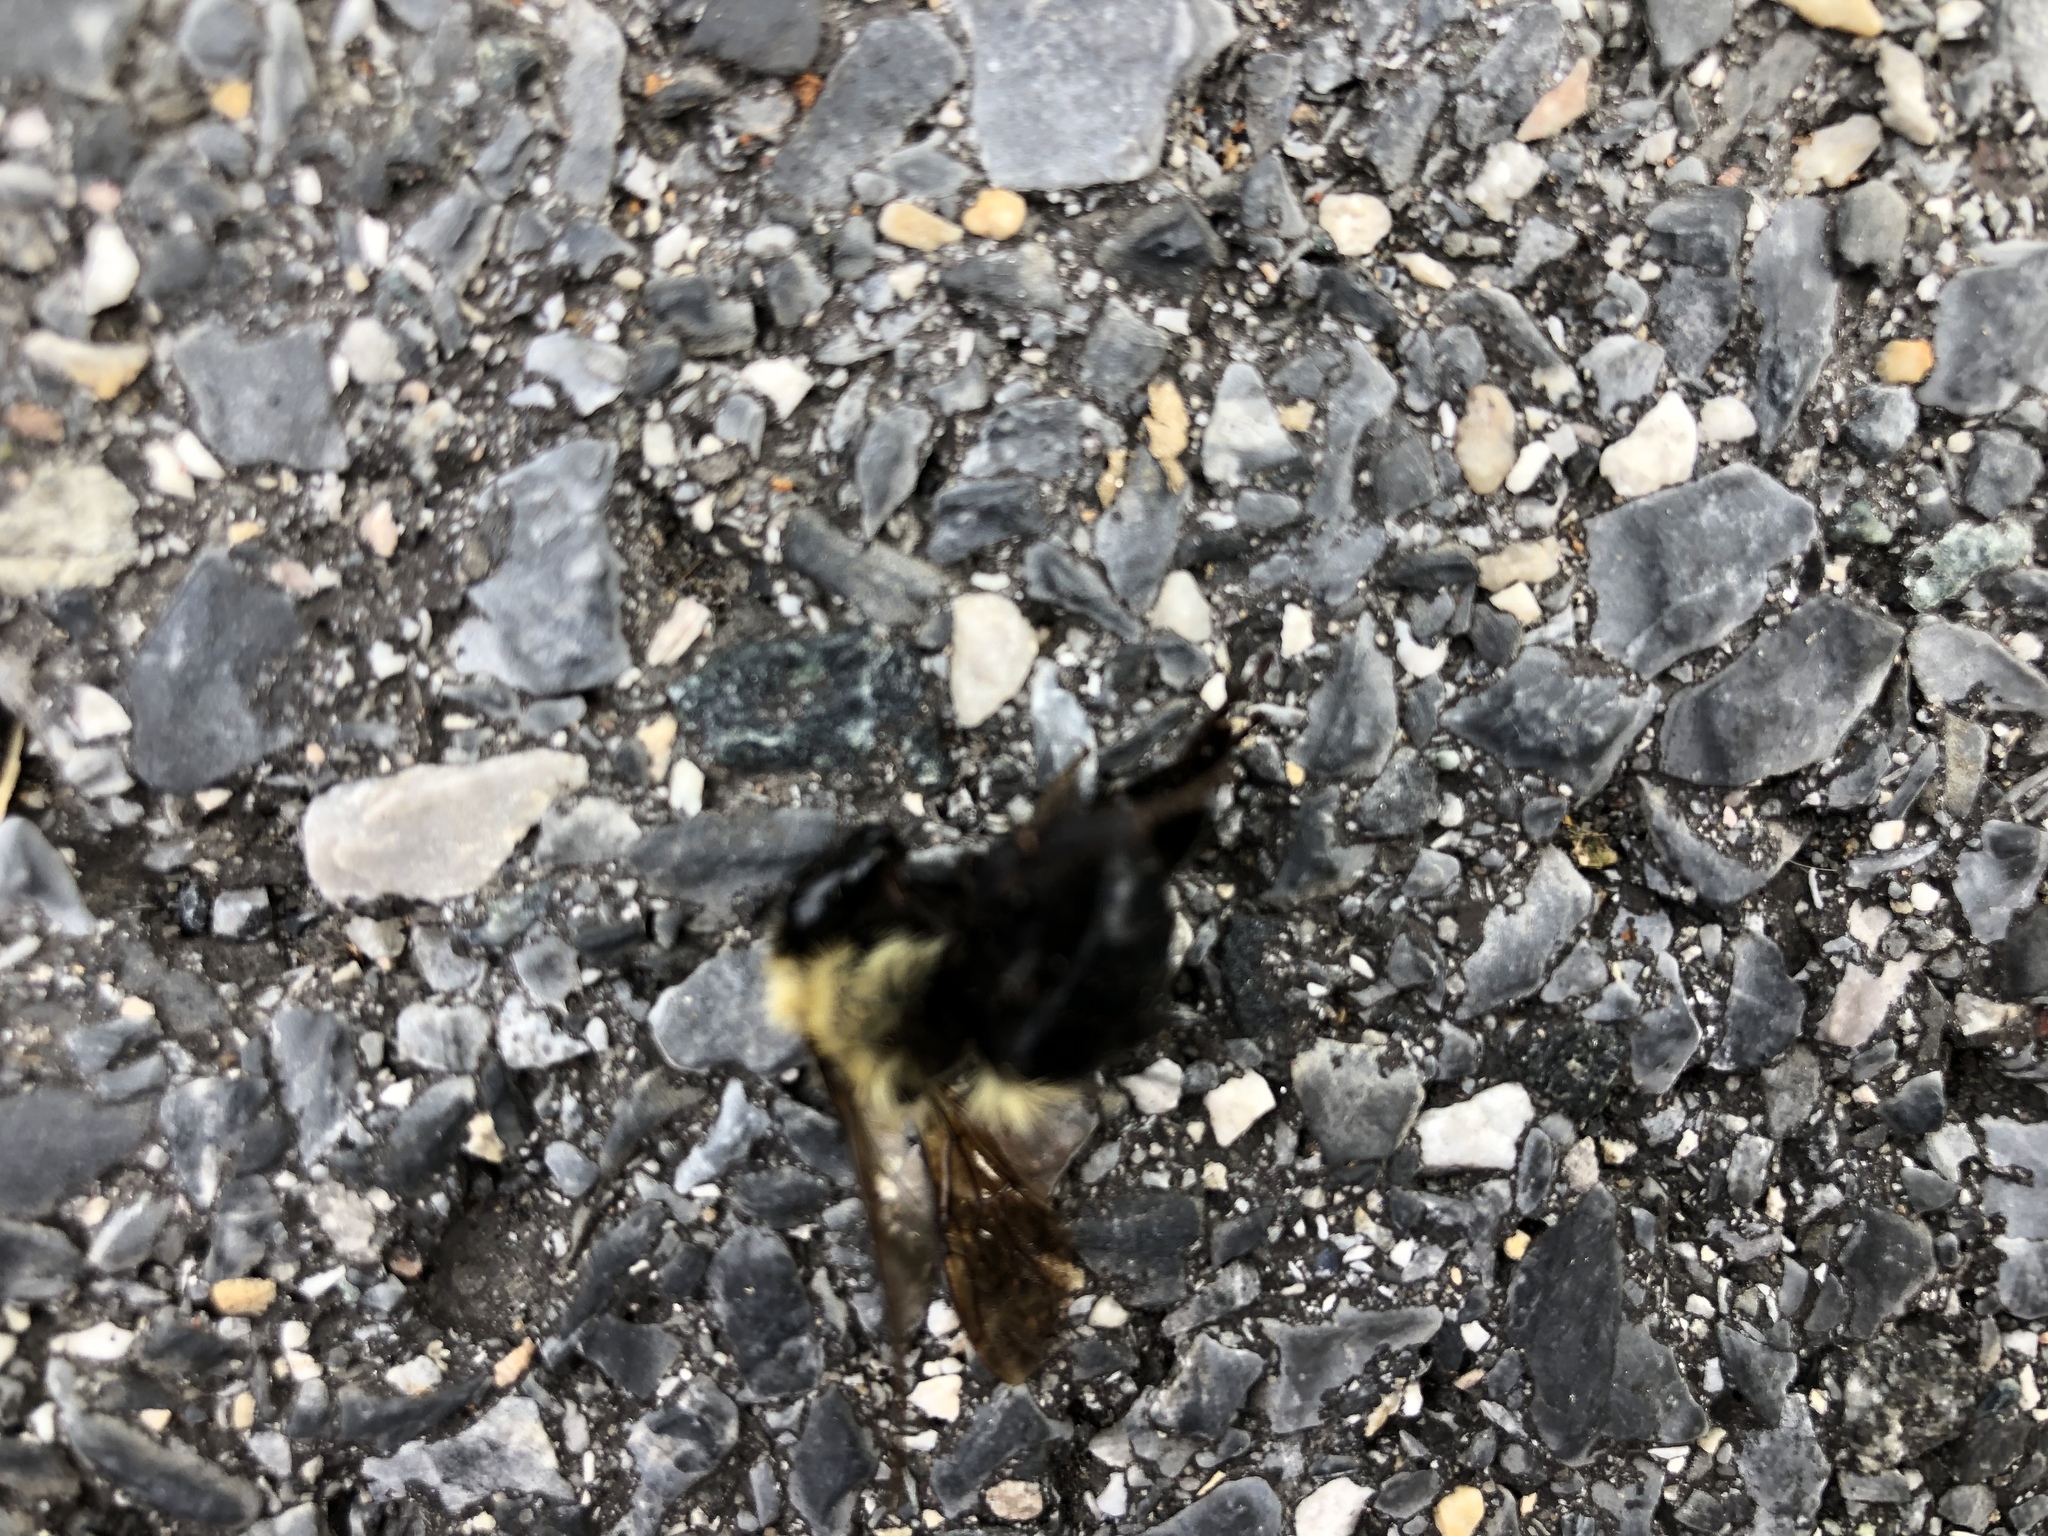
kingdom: Animalia
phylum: Arthropoda
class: Insecta
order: Hymenoptera
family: Apidae
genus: Bombus
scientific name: Bombus impatiens
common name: Common eastern bumble bee
